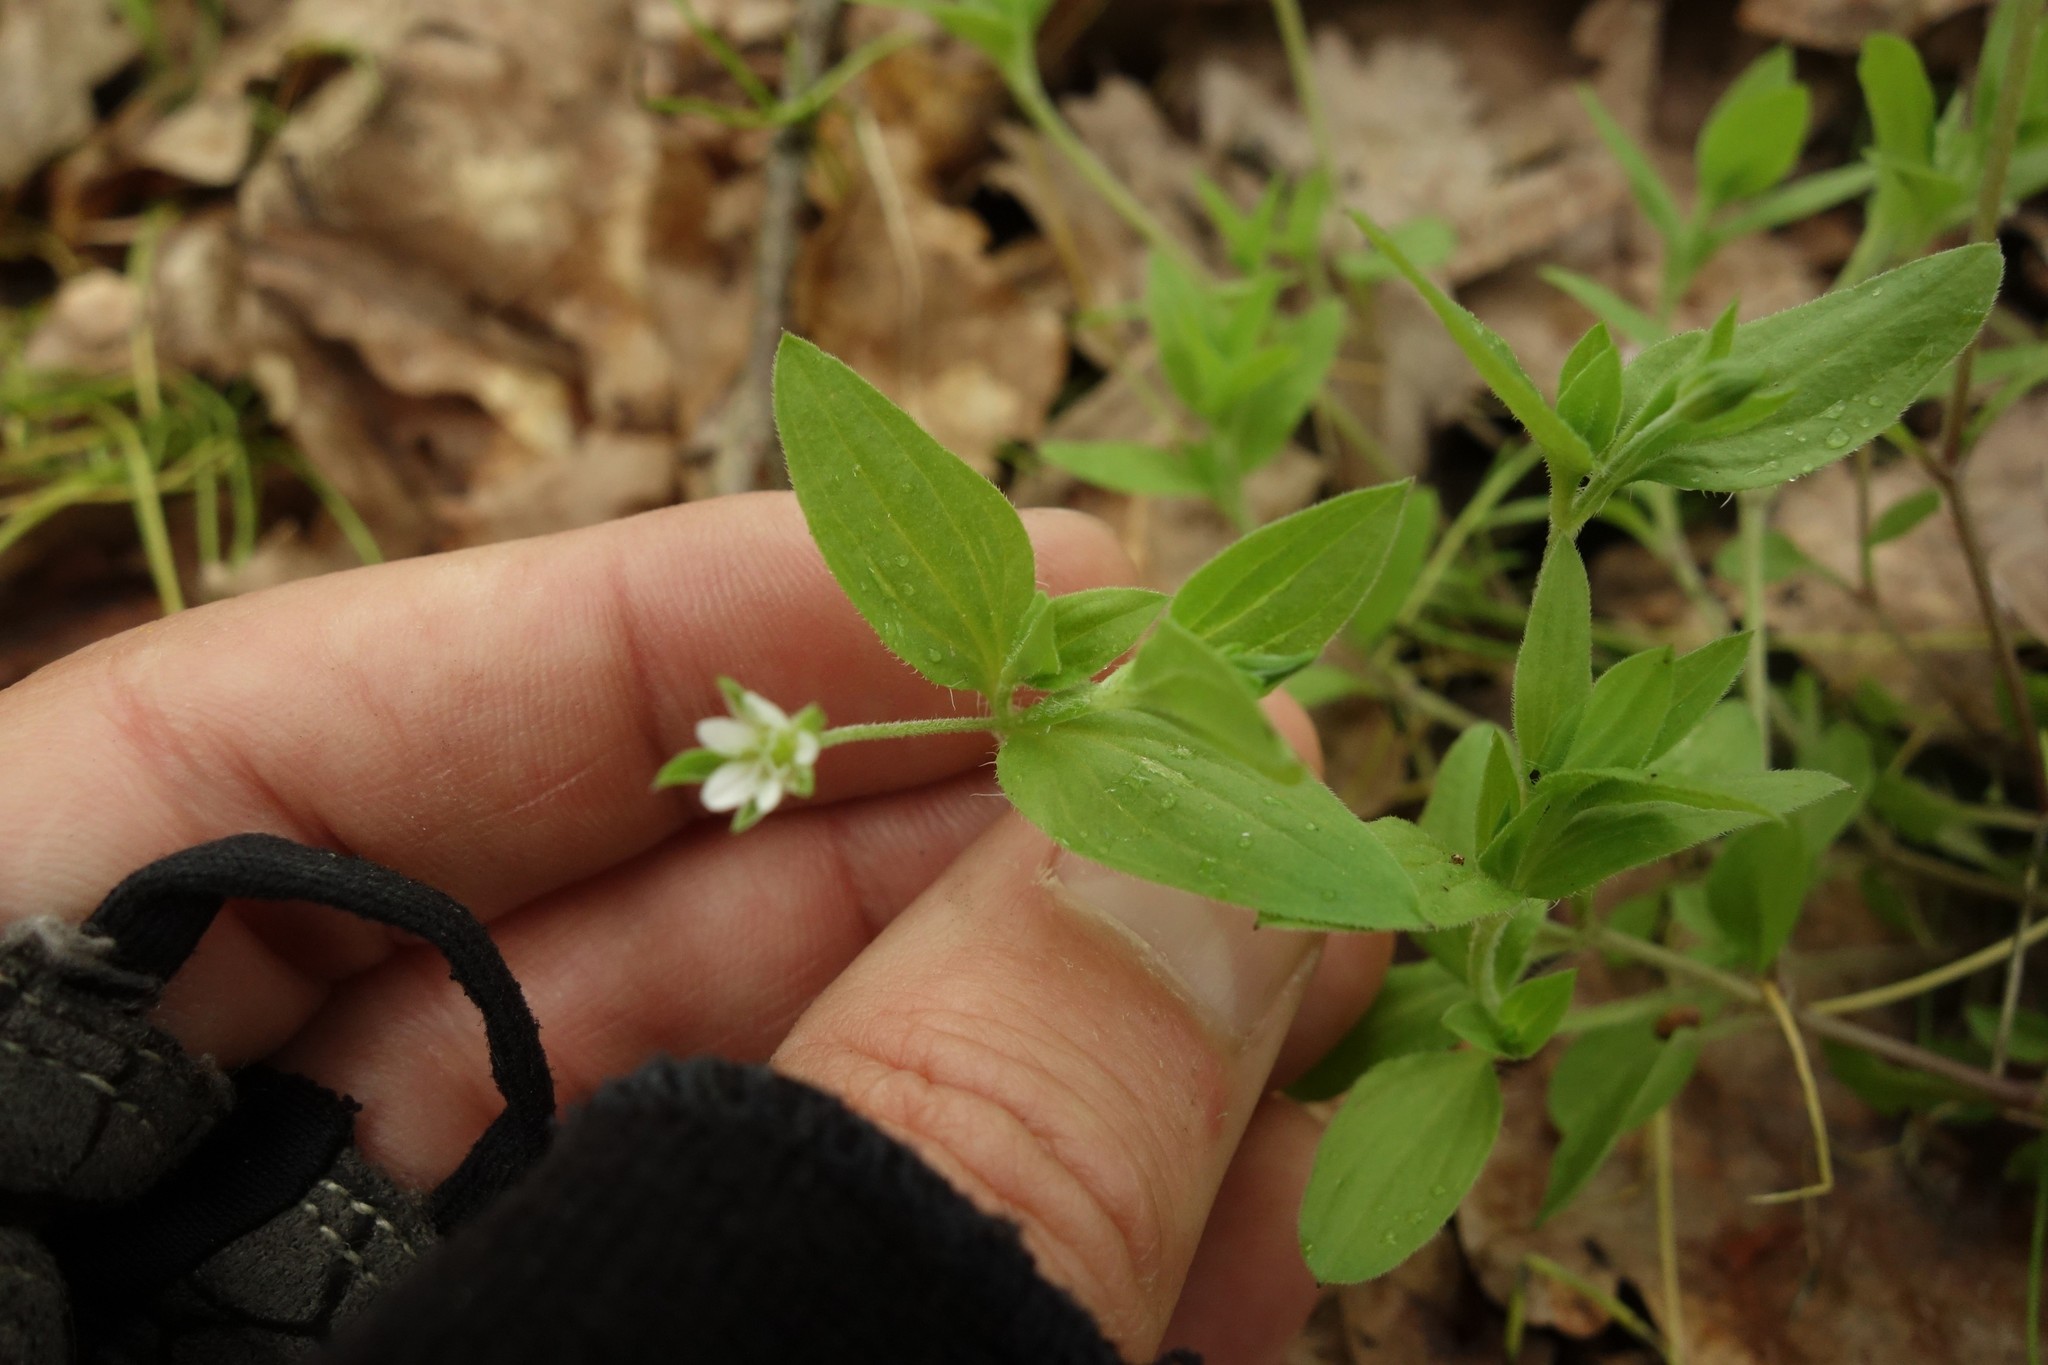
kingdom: Plantae
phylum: Tracheophyta
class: Magnoliopsida
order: Caryophyllales
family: Caryophyllaceae
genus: Moehringia
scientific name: Moehringia trinervia
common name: Three-nerved sandwort
